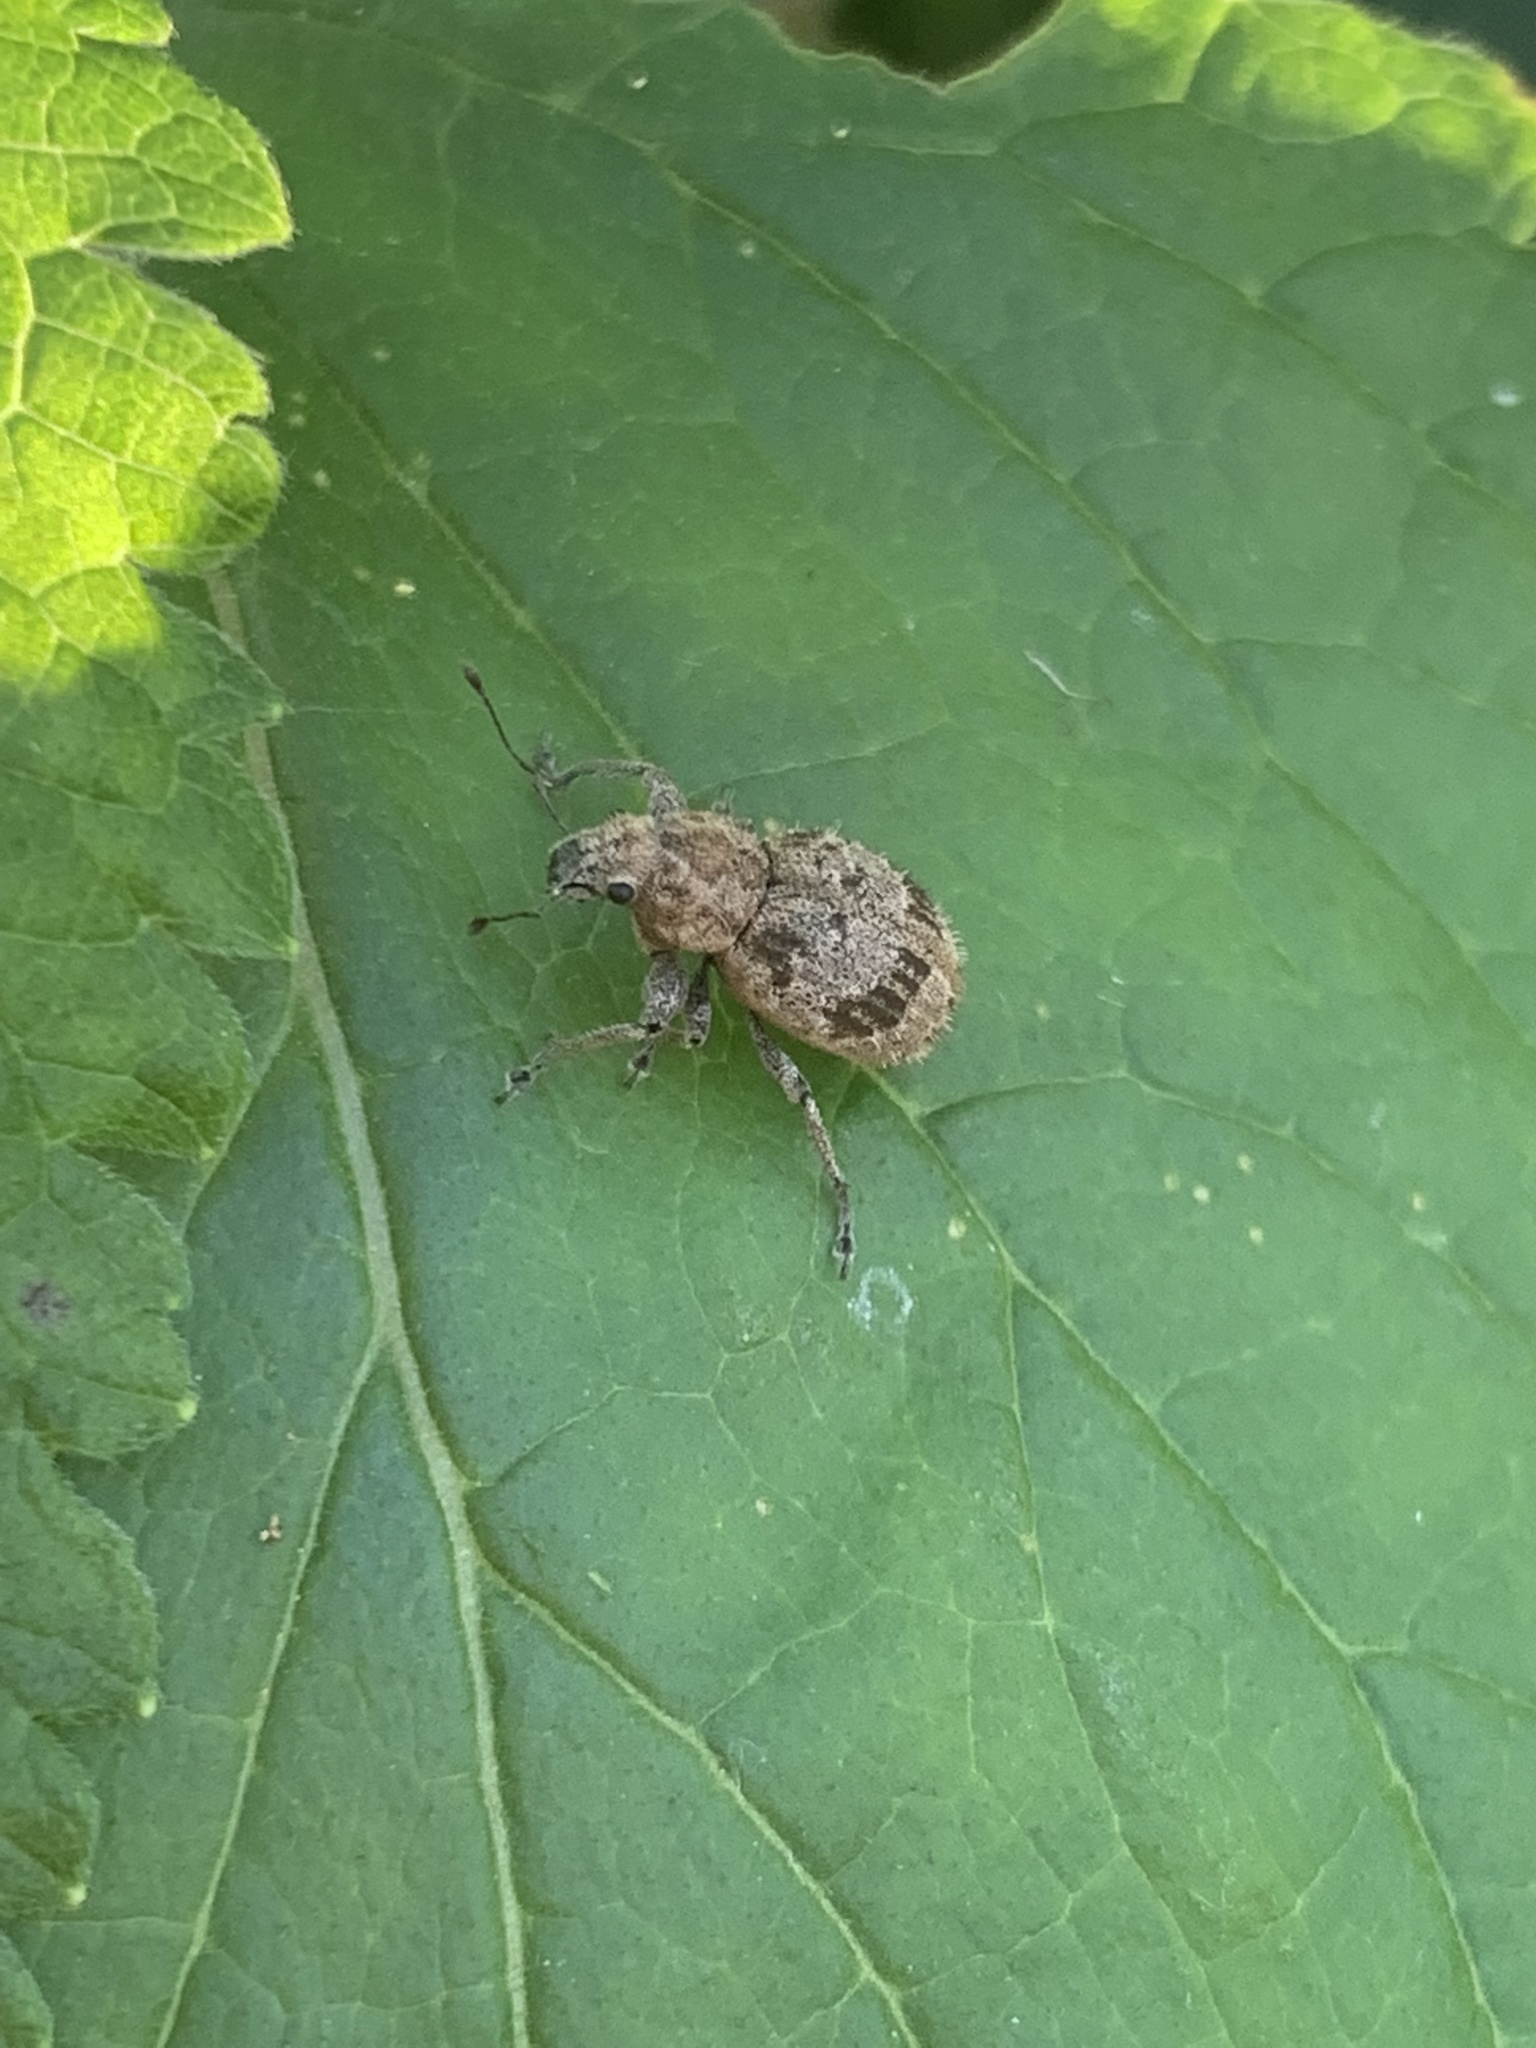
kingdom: Animalia
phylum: Arthropoda
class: Insecta
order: Coleoptera
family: Curculionidae
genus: Pantomorus
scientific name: Pantomorus
